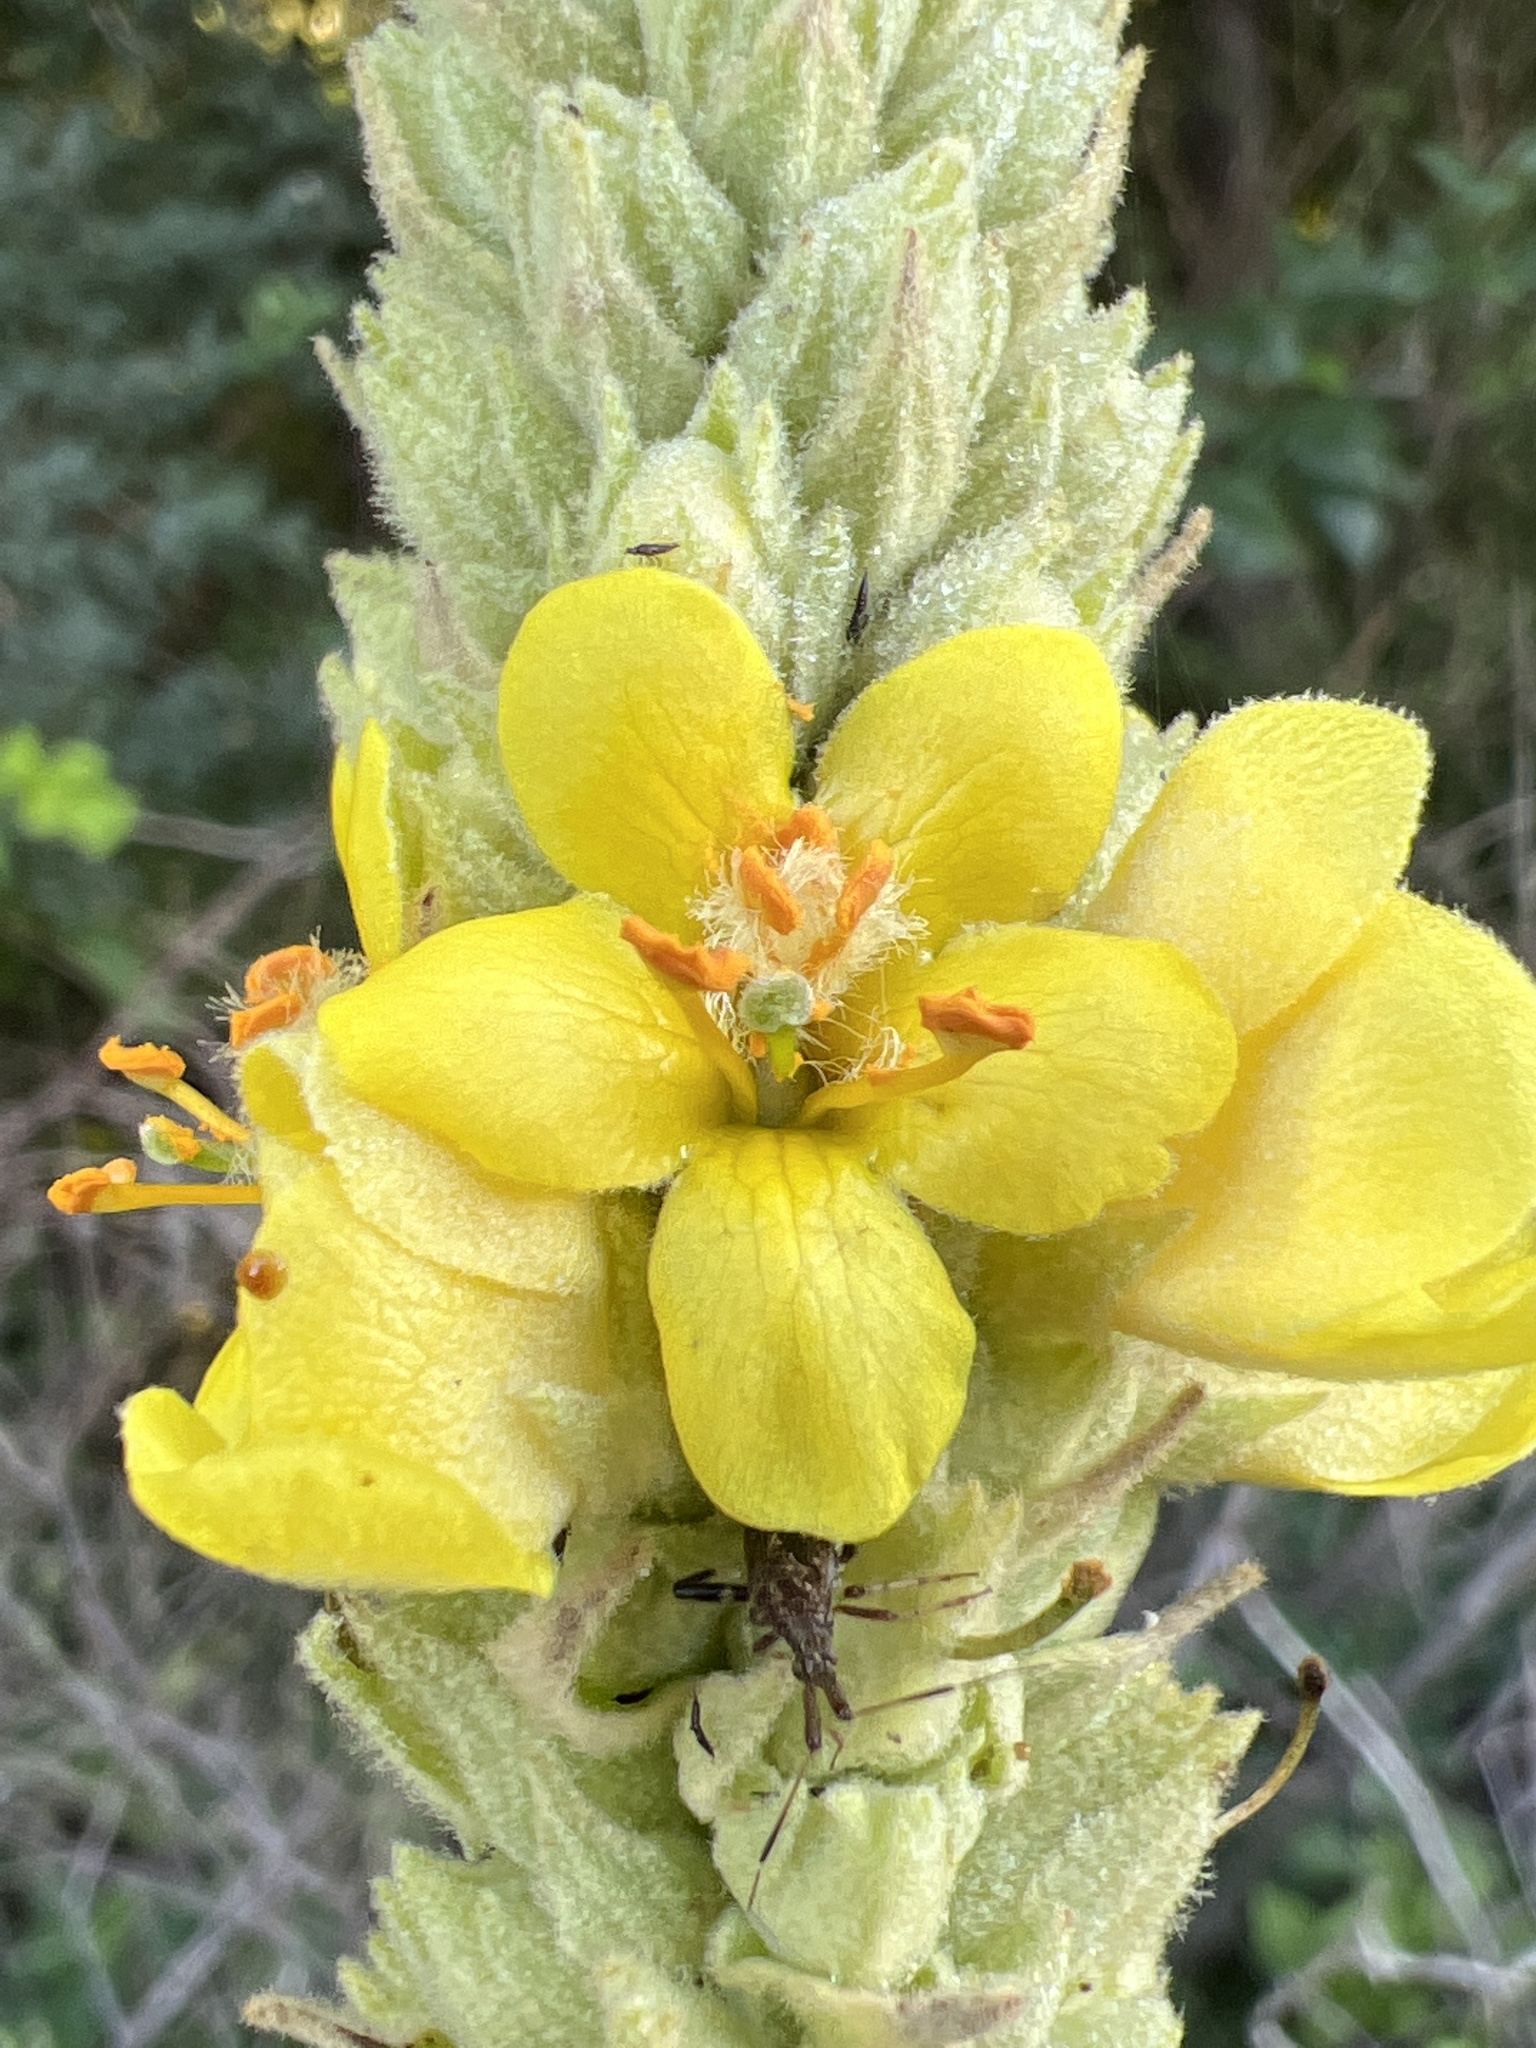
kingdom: Plantae
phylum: Tracheophyta
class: Magnoliopsida
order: Lamiales
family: Scrophulariaceae
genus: Verbascum
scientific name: Verbascum thapsus
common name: Common mullein
